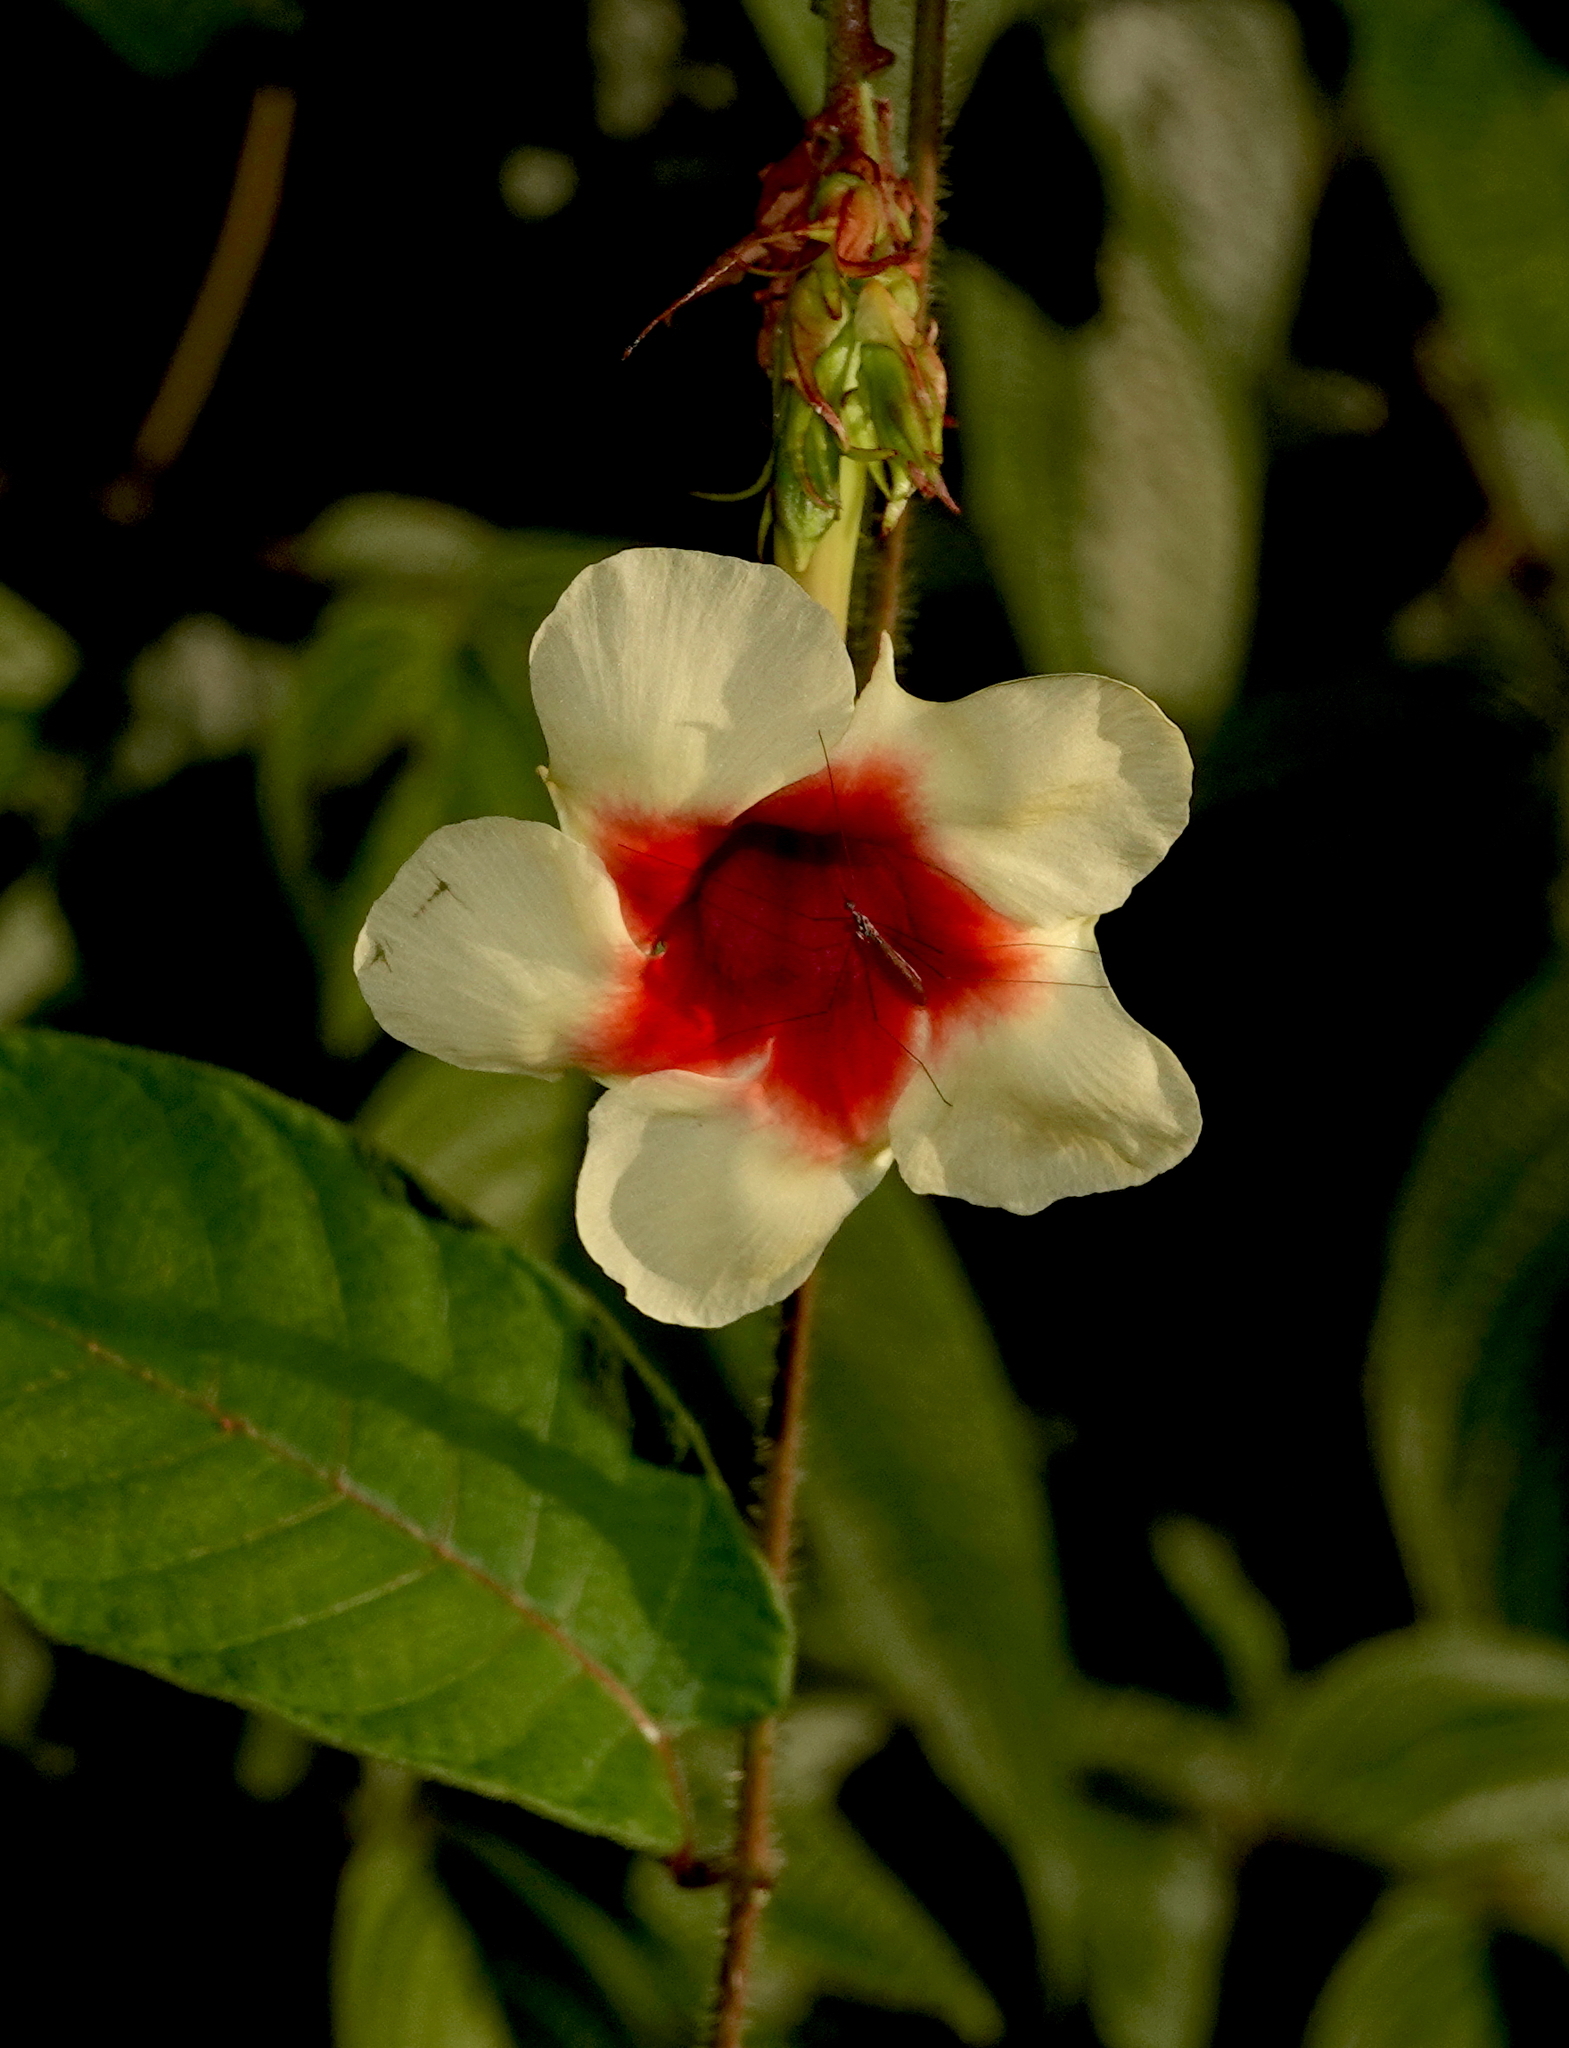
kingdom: Plantae
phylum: Tracheophyta
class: Magnoliopsida
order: Gentianales
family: Apocynaceae
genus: Mandevilla
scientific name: Mandevilla hirsuta
